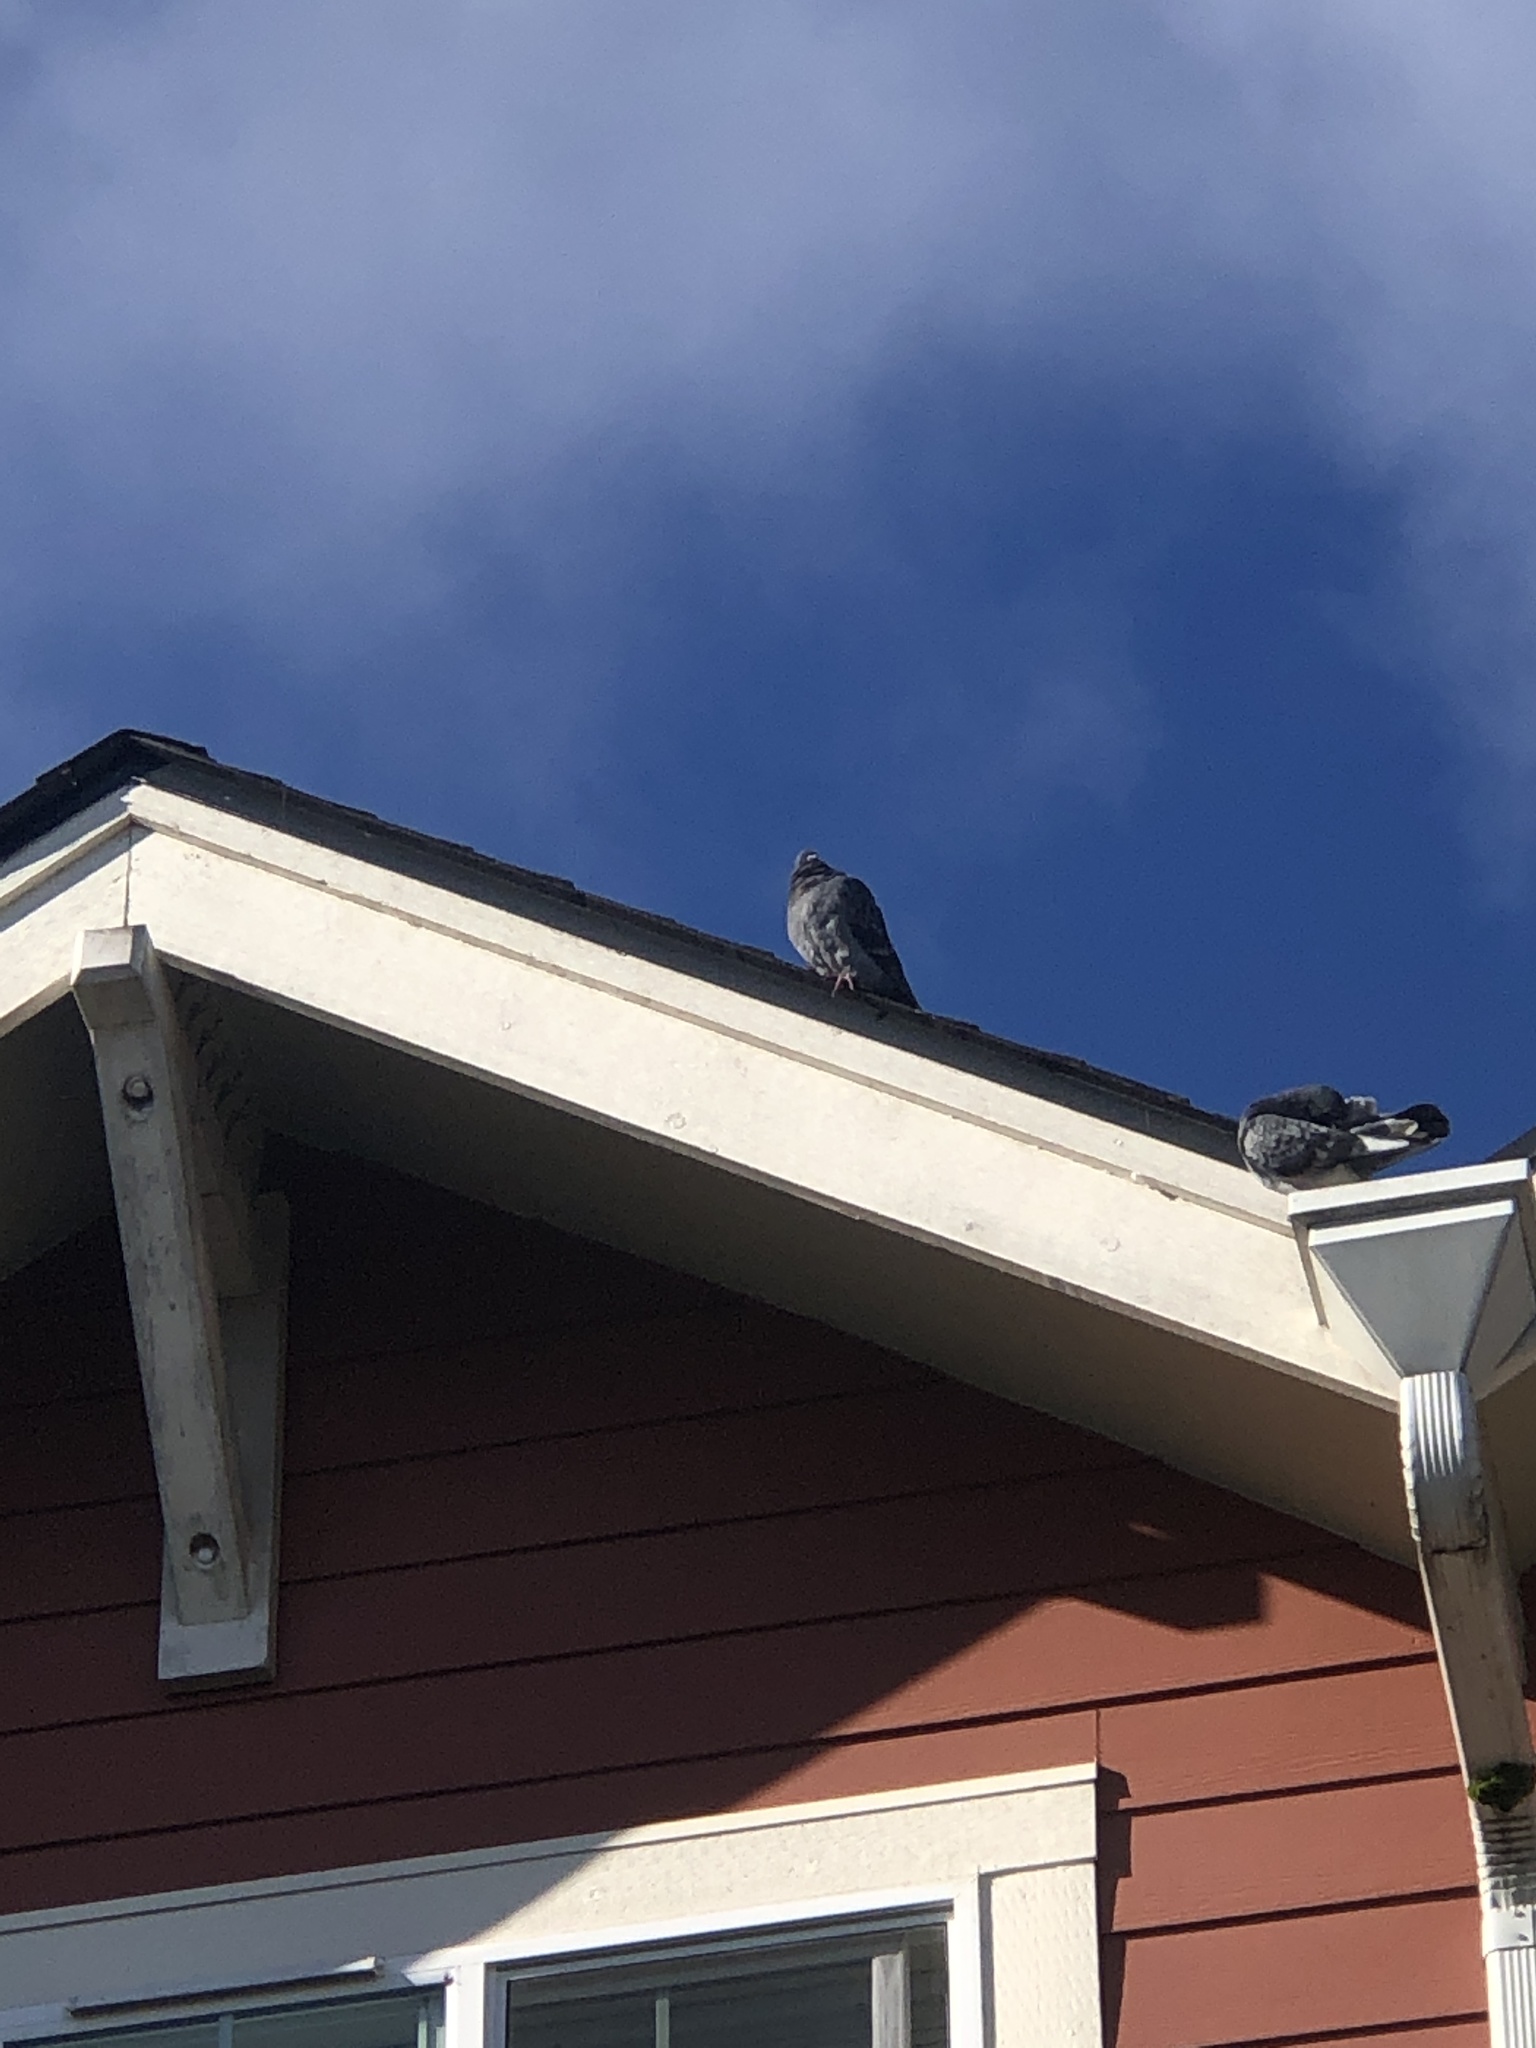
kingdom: Animalia
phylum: Chordata
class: Aves
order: Columbiformes
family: Columbidae
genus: Columba
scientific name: Columba livia
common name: Rock pigeon
